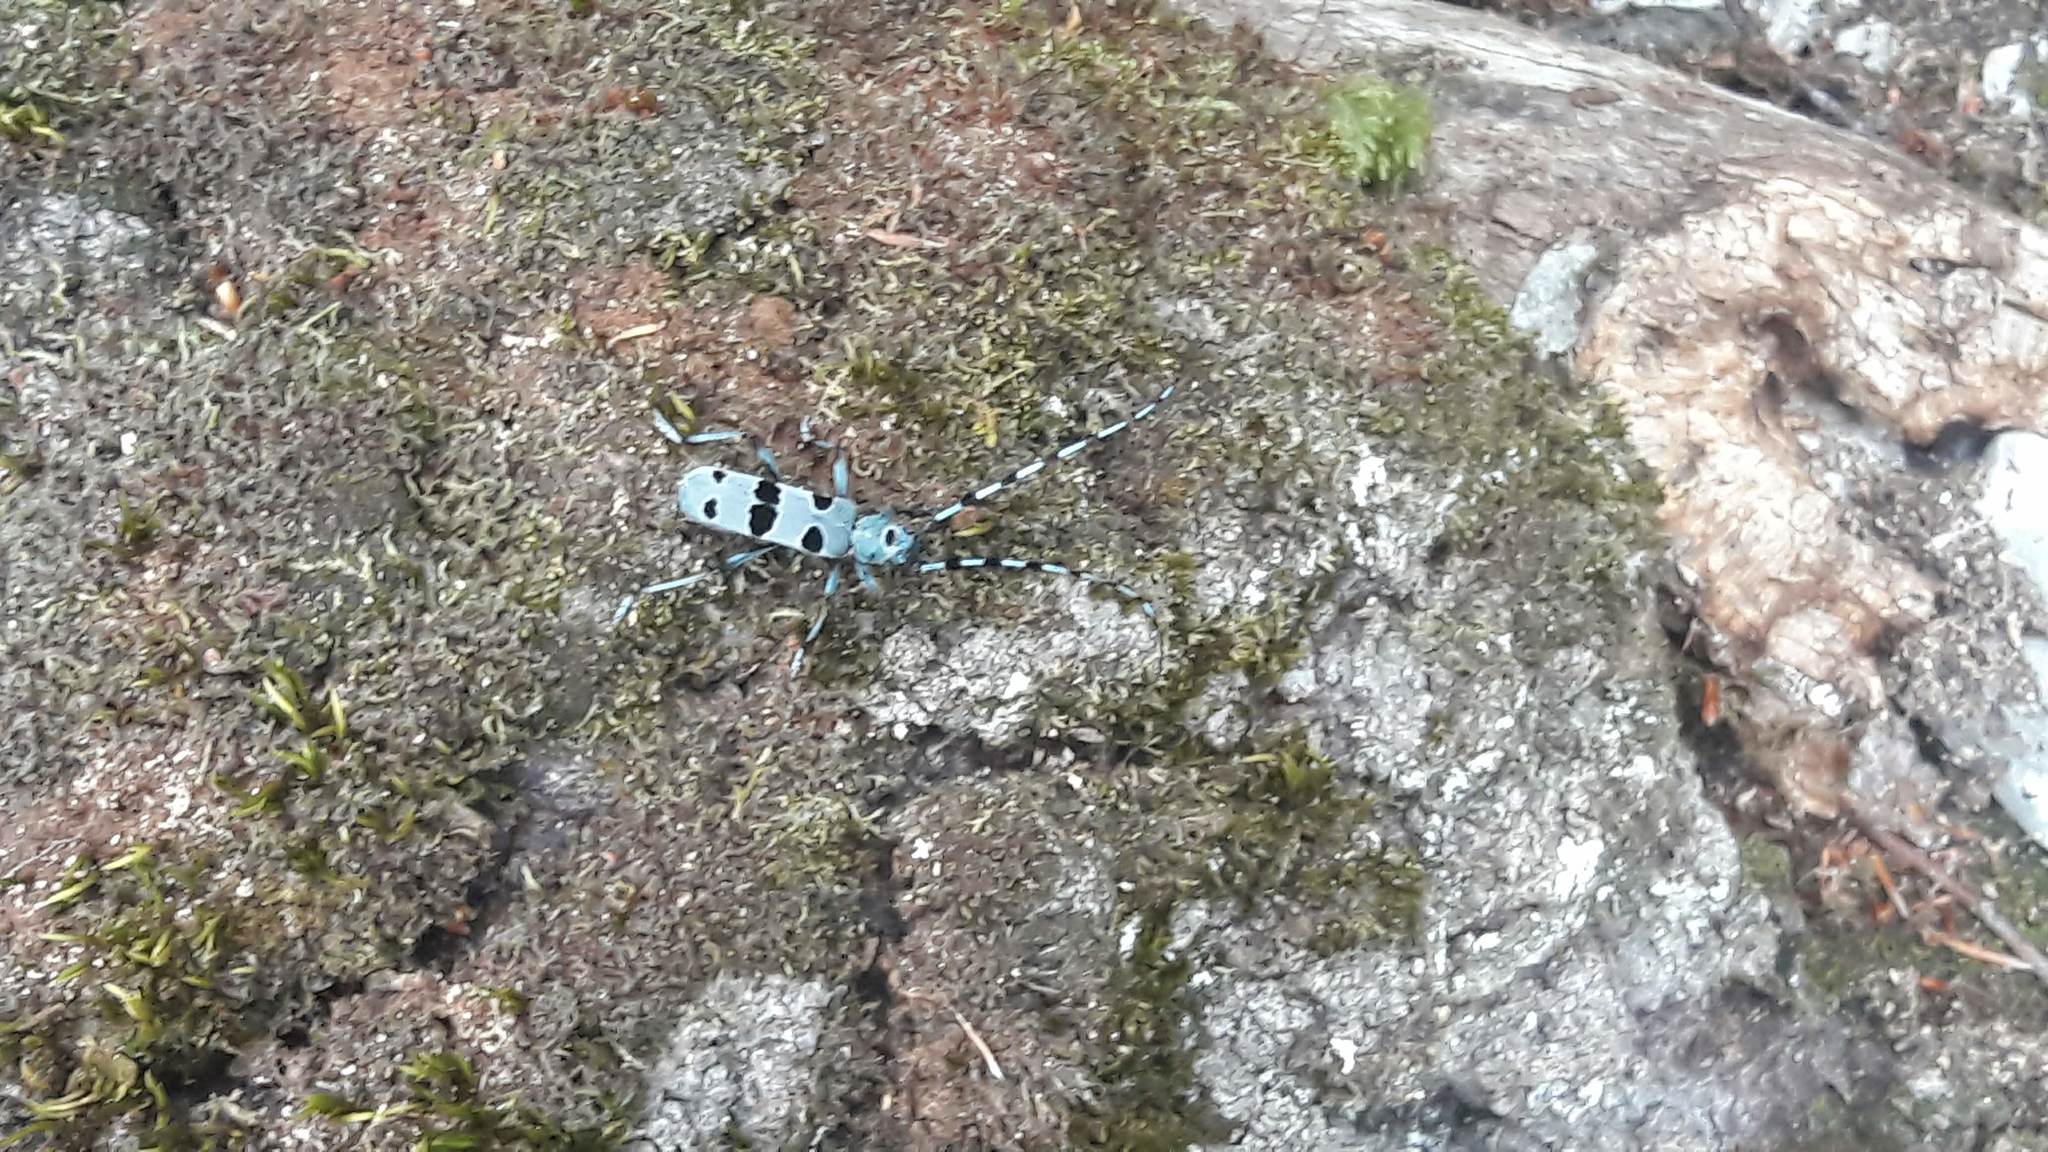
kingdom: Animalia
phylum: Arthropoda
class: Insecta
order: Coleoptera
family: Cerambycidae
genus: Rosalia
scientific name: Rosalia alpina
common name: Rosalia longicorn
